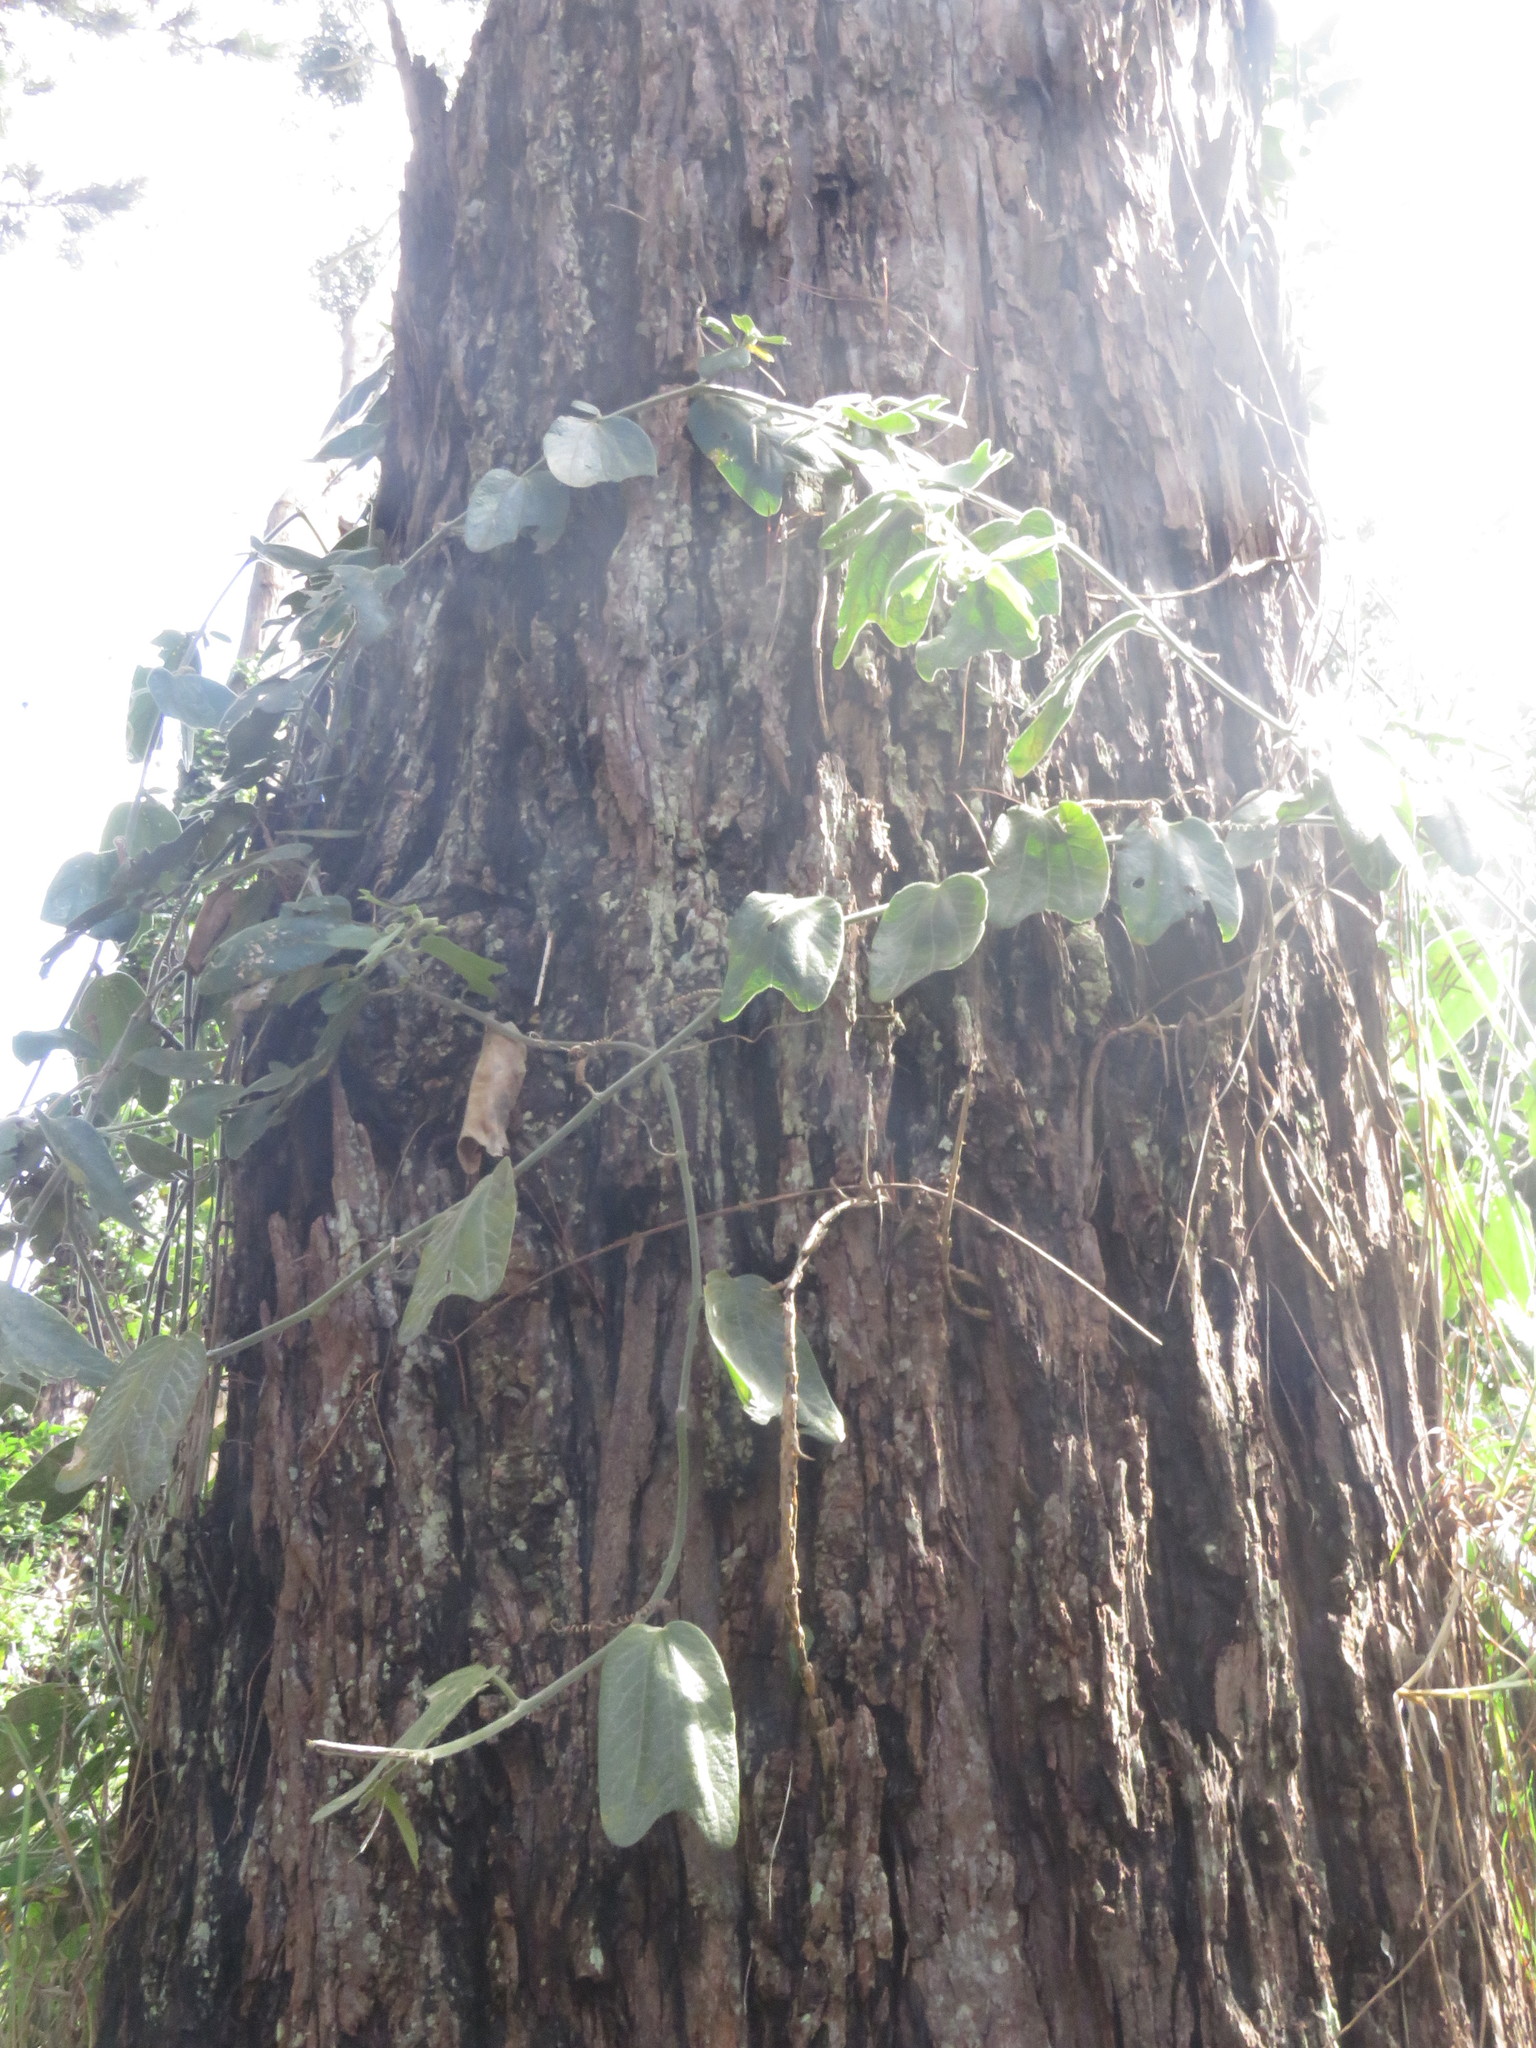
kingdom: Plantae
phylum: Tracheophyta
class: Magnoliopsida
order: Malpighiales
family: Passifloraceae
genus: Passiflora
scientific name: Passiflora bogotensis
